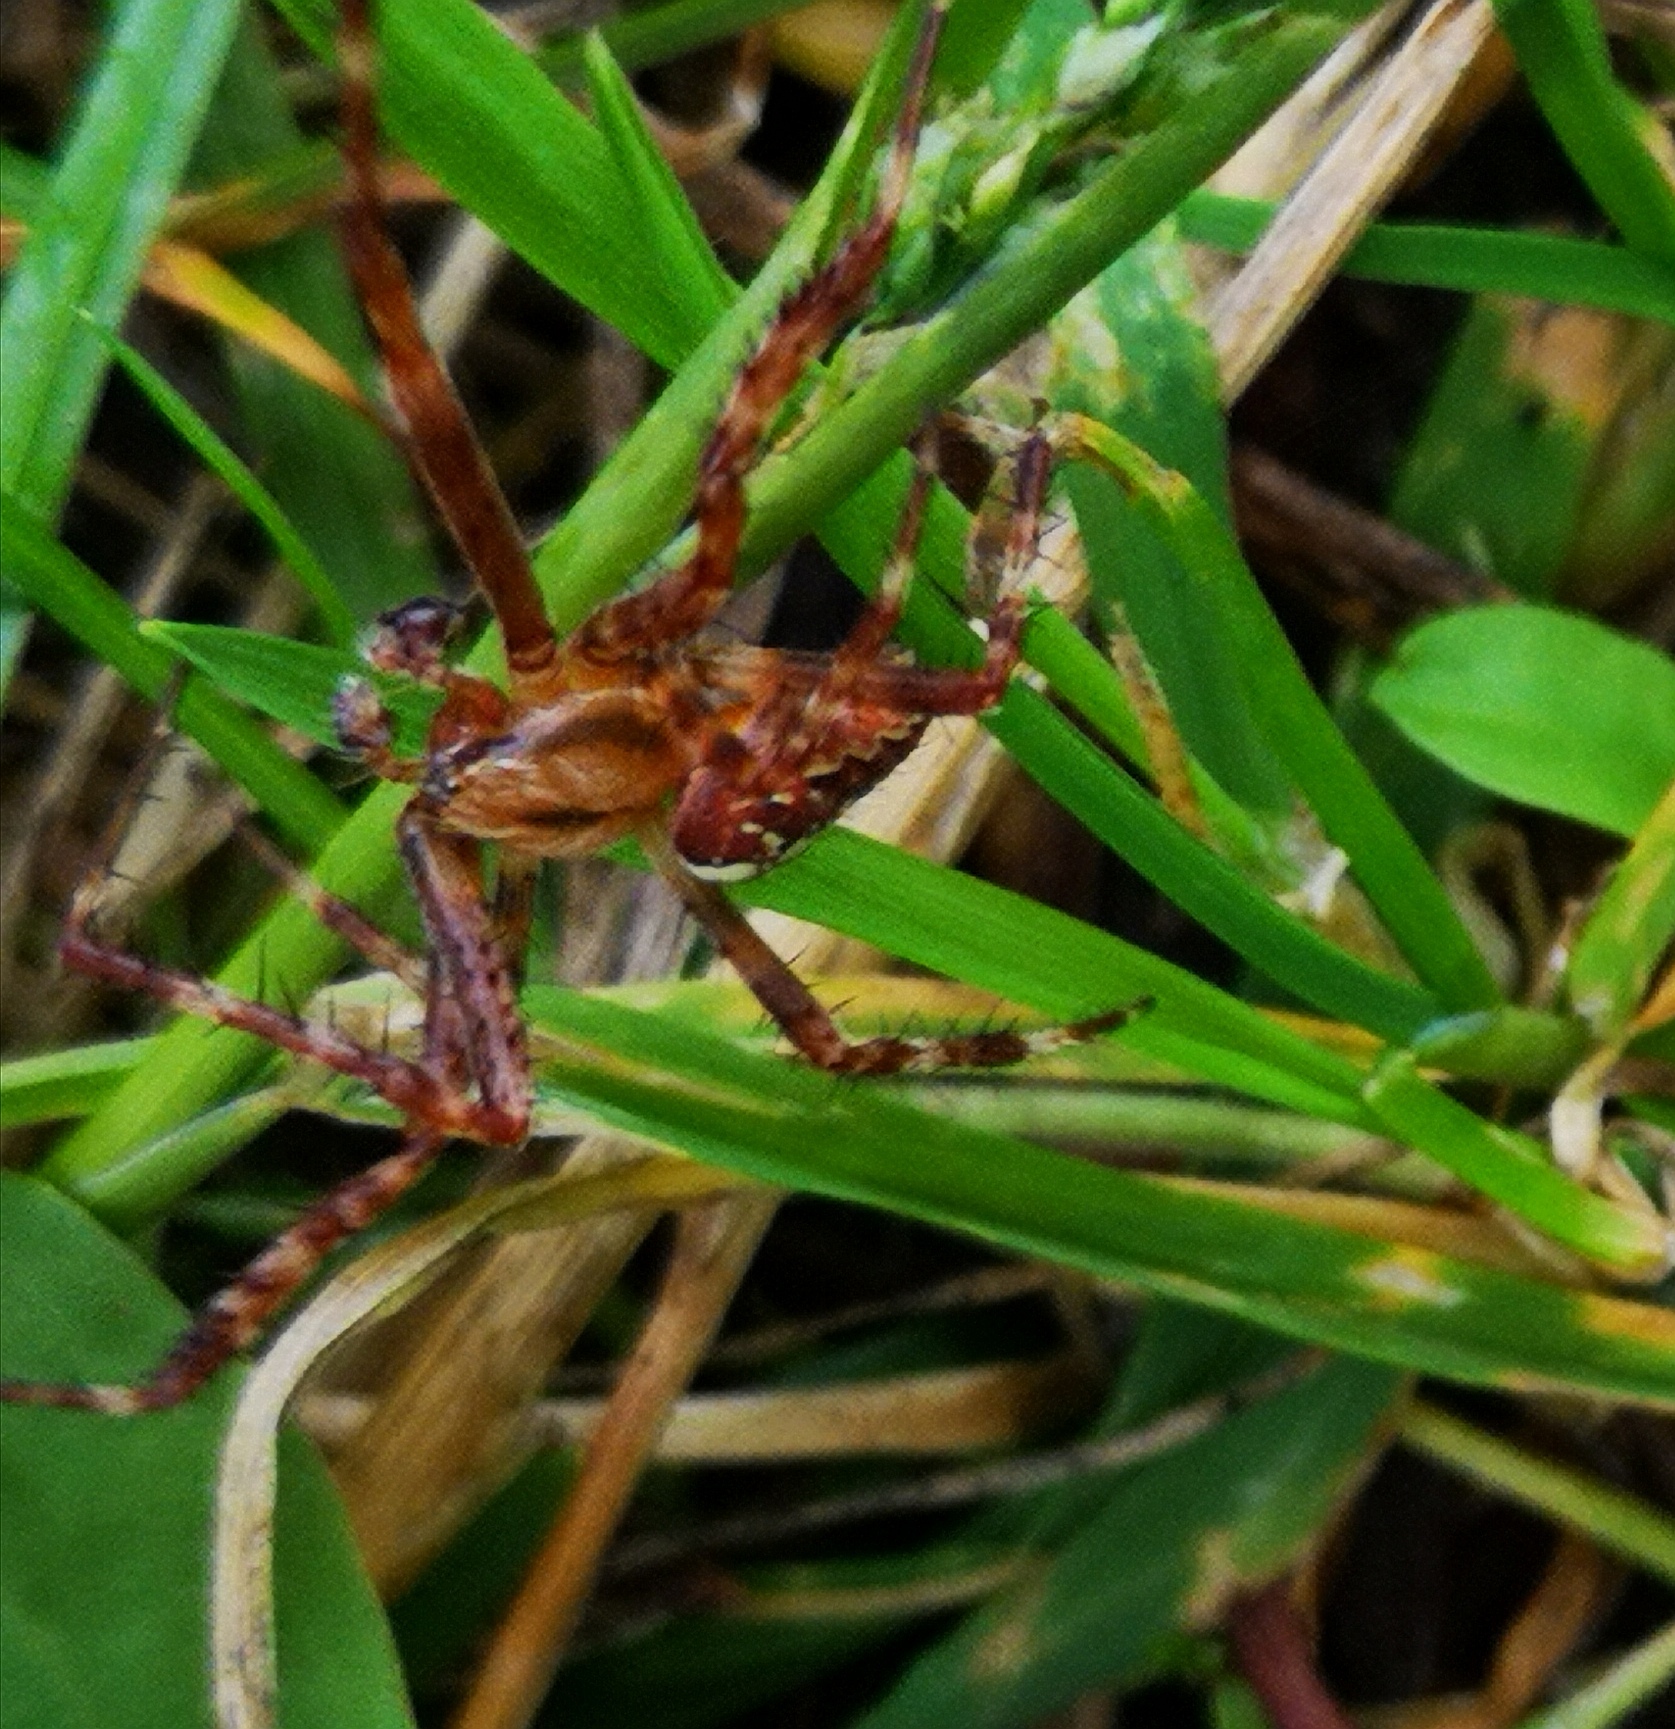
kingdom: Animalia
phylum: Arthropoda
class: Arachnida
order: Araneae
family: Araneidae
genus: Araneus
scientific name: Araneus diadematus
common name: Cross orbweaver
